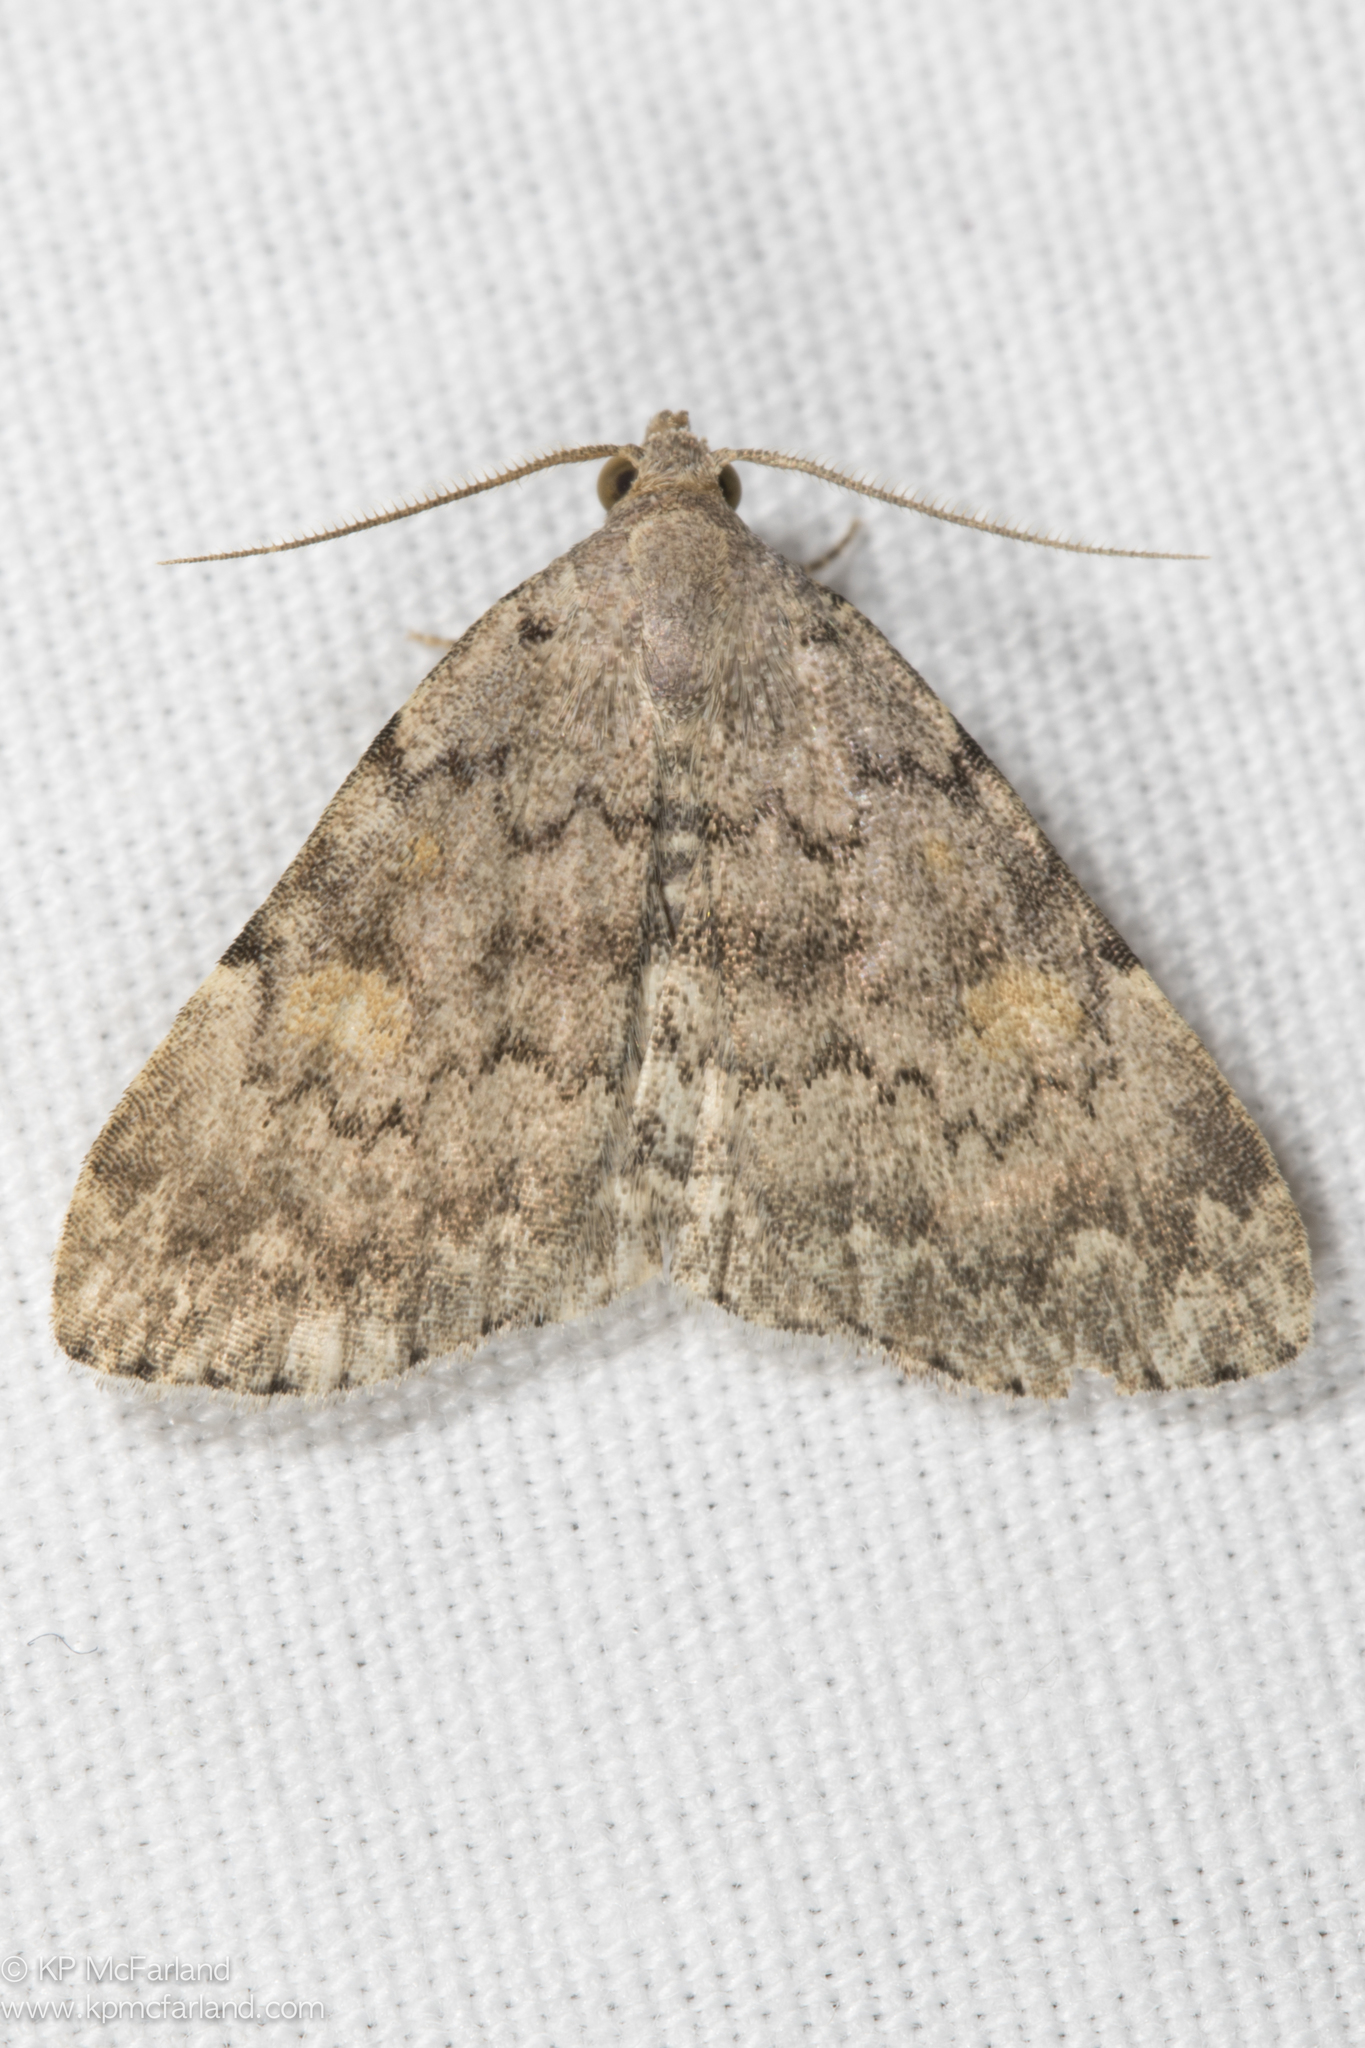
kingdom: Animalia
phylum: Arthropoda
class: Insecta
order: Lepidoptera
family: Erebidae
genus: Idia
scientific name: Idia aemula
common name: Common idia moth
